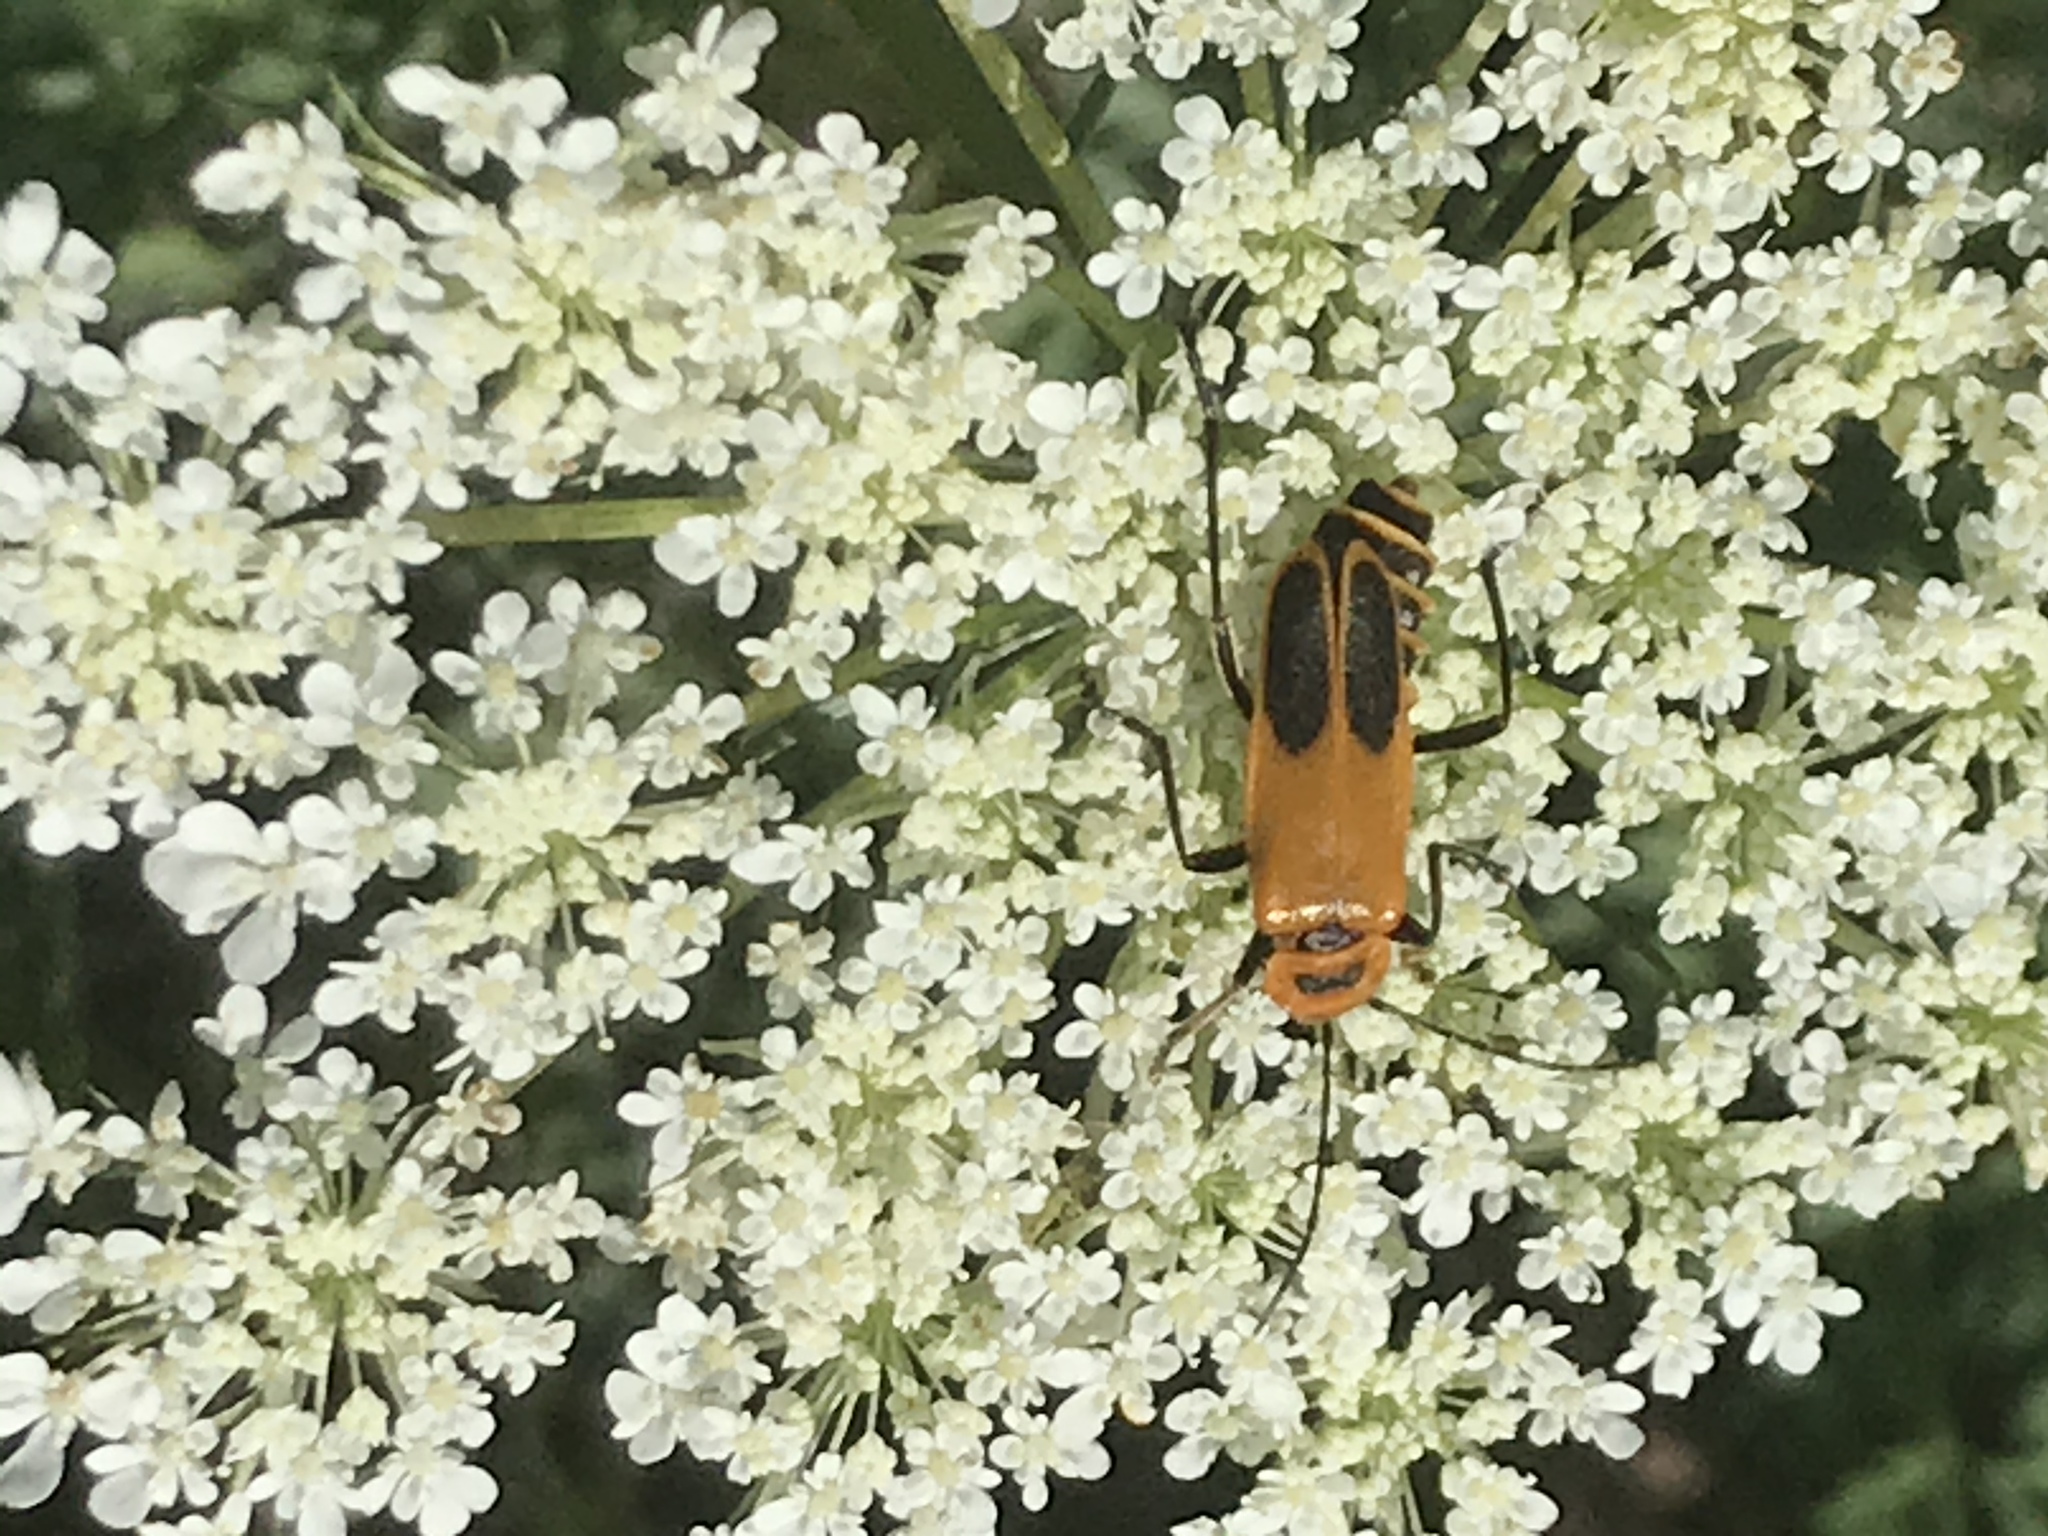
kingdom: Animalia
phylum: Arthropoda
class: Insecta
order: Coleoptera
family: Cantharidae
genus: Chauliognathus
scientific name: Chauliognathus pensylvanicus
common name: Goldenrod soldier beetle
